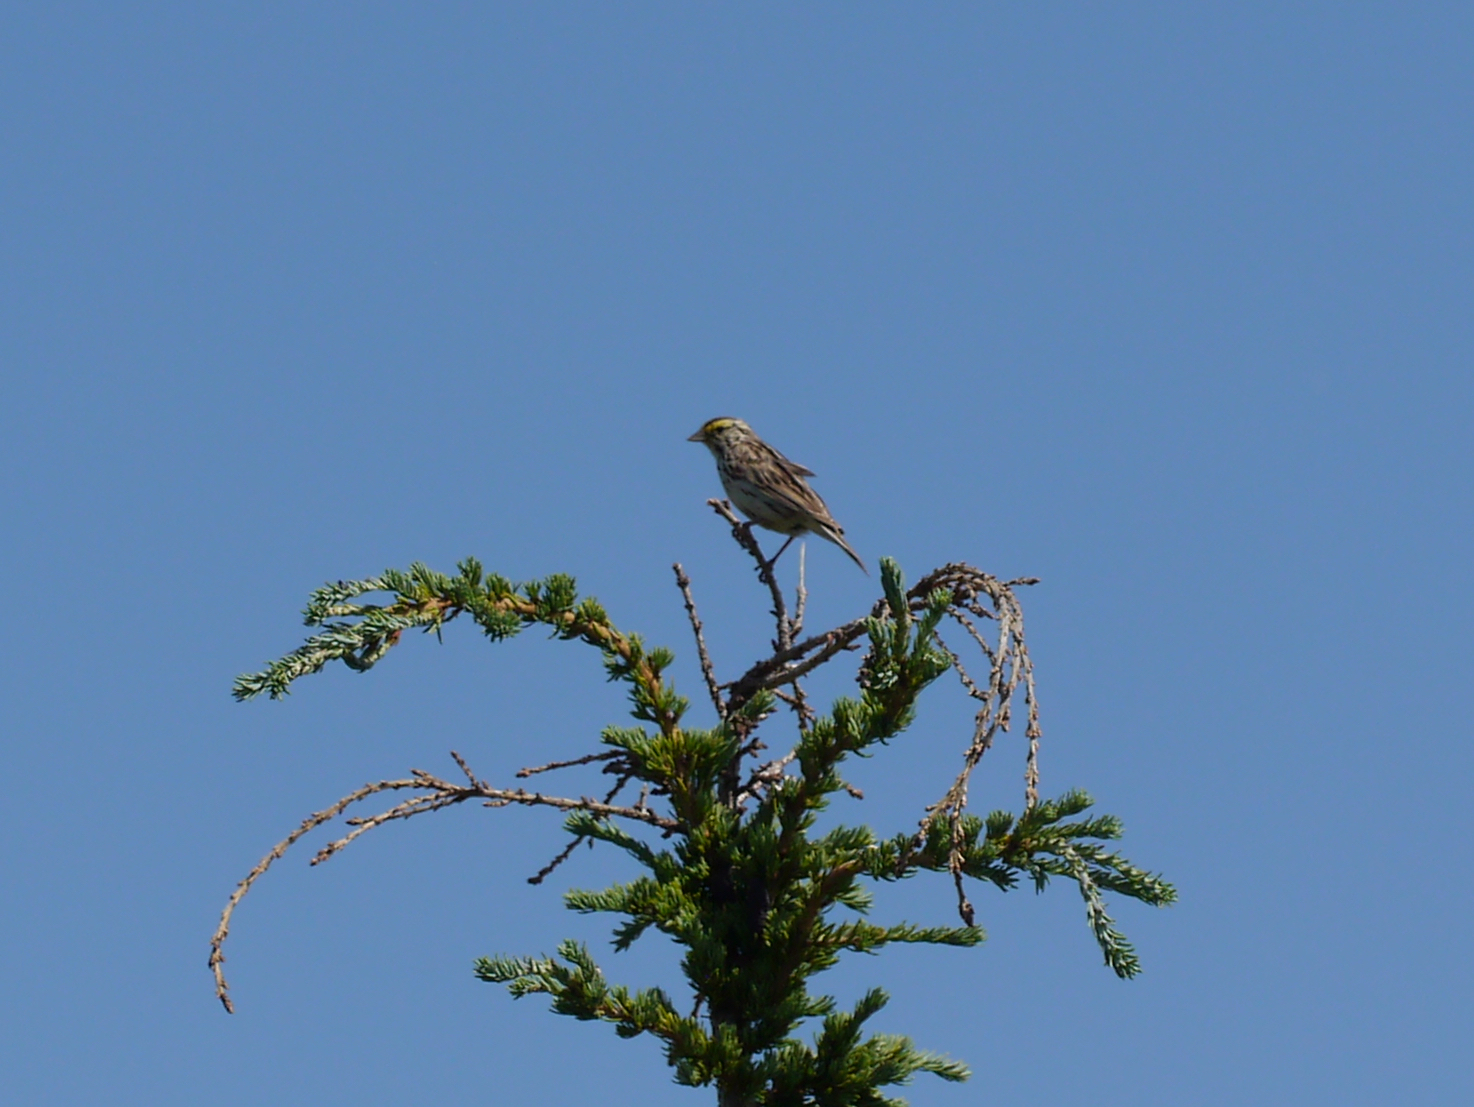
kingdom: Animalia
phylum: Chordata
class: Aves
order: Passeriformes
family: Passerellidae
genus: Passerculus
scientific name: Passerculus sandwichensis
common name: Savannah sparrow
